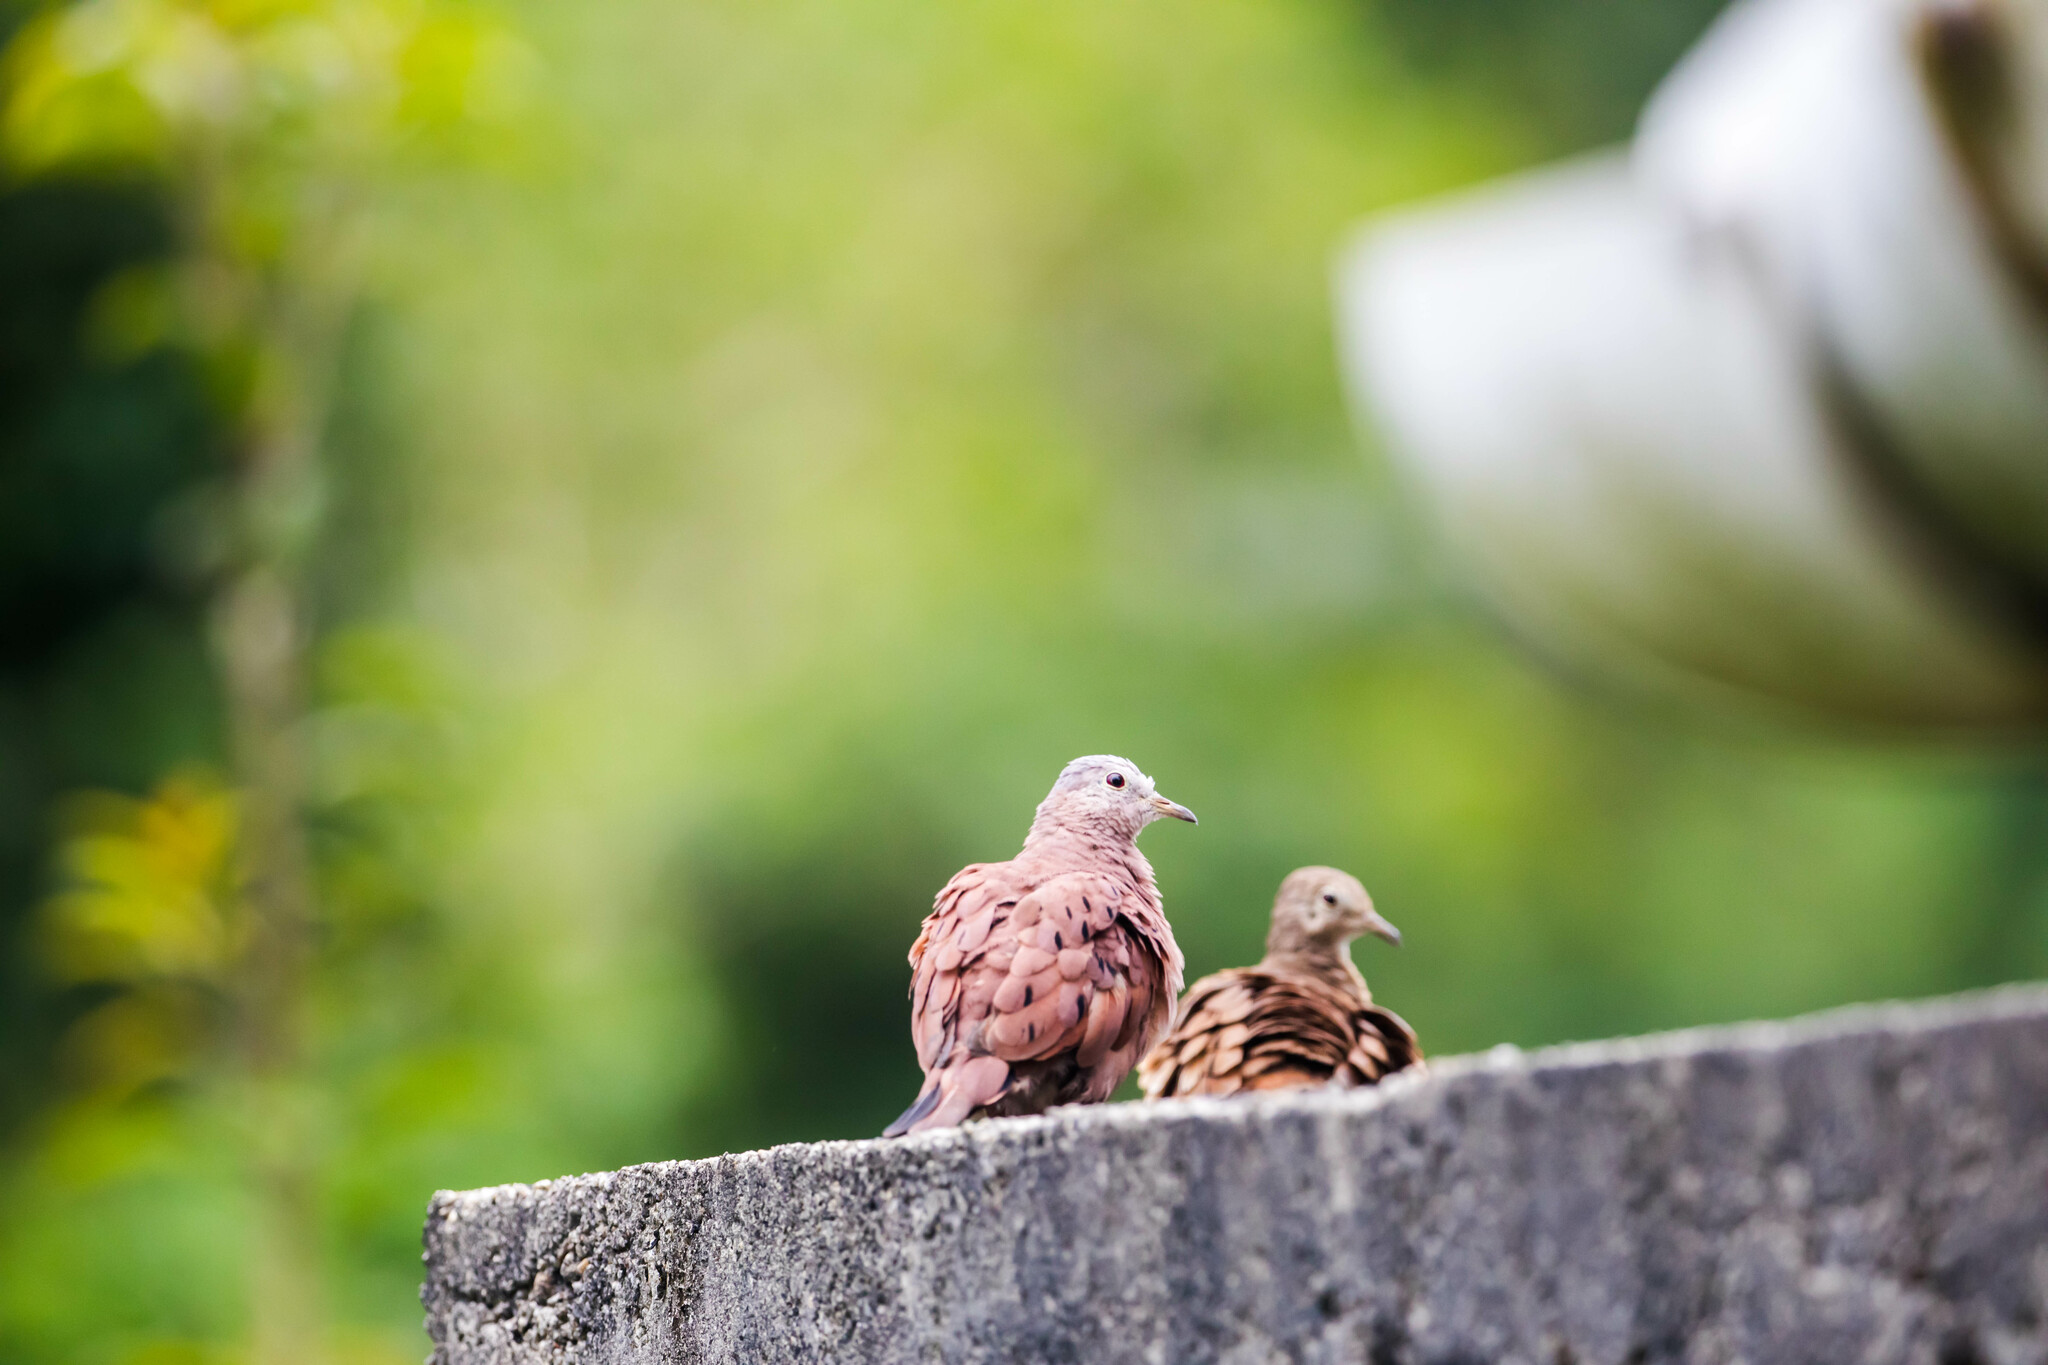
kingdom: Animalia
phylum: Chordata
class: Aves
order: Columbiformes
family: Columbidae
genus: Columbina
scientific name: Columbina talpacoti
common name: Ruddy ground dove
